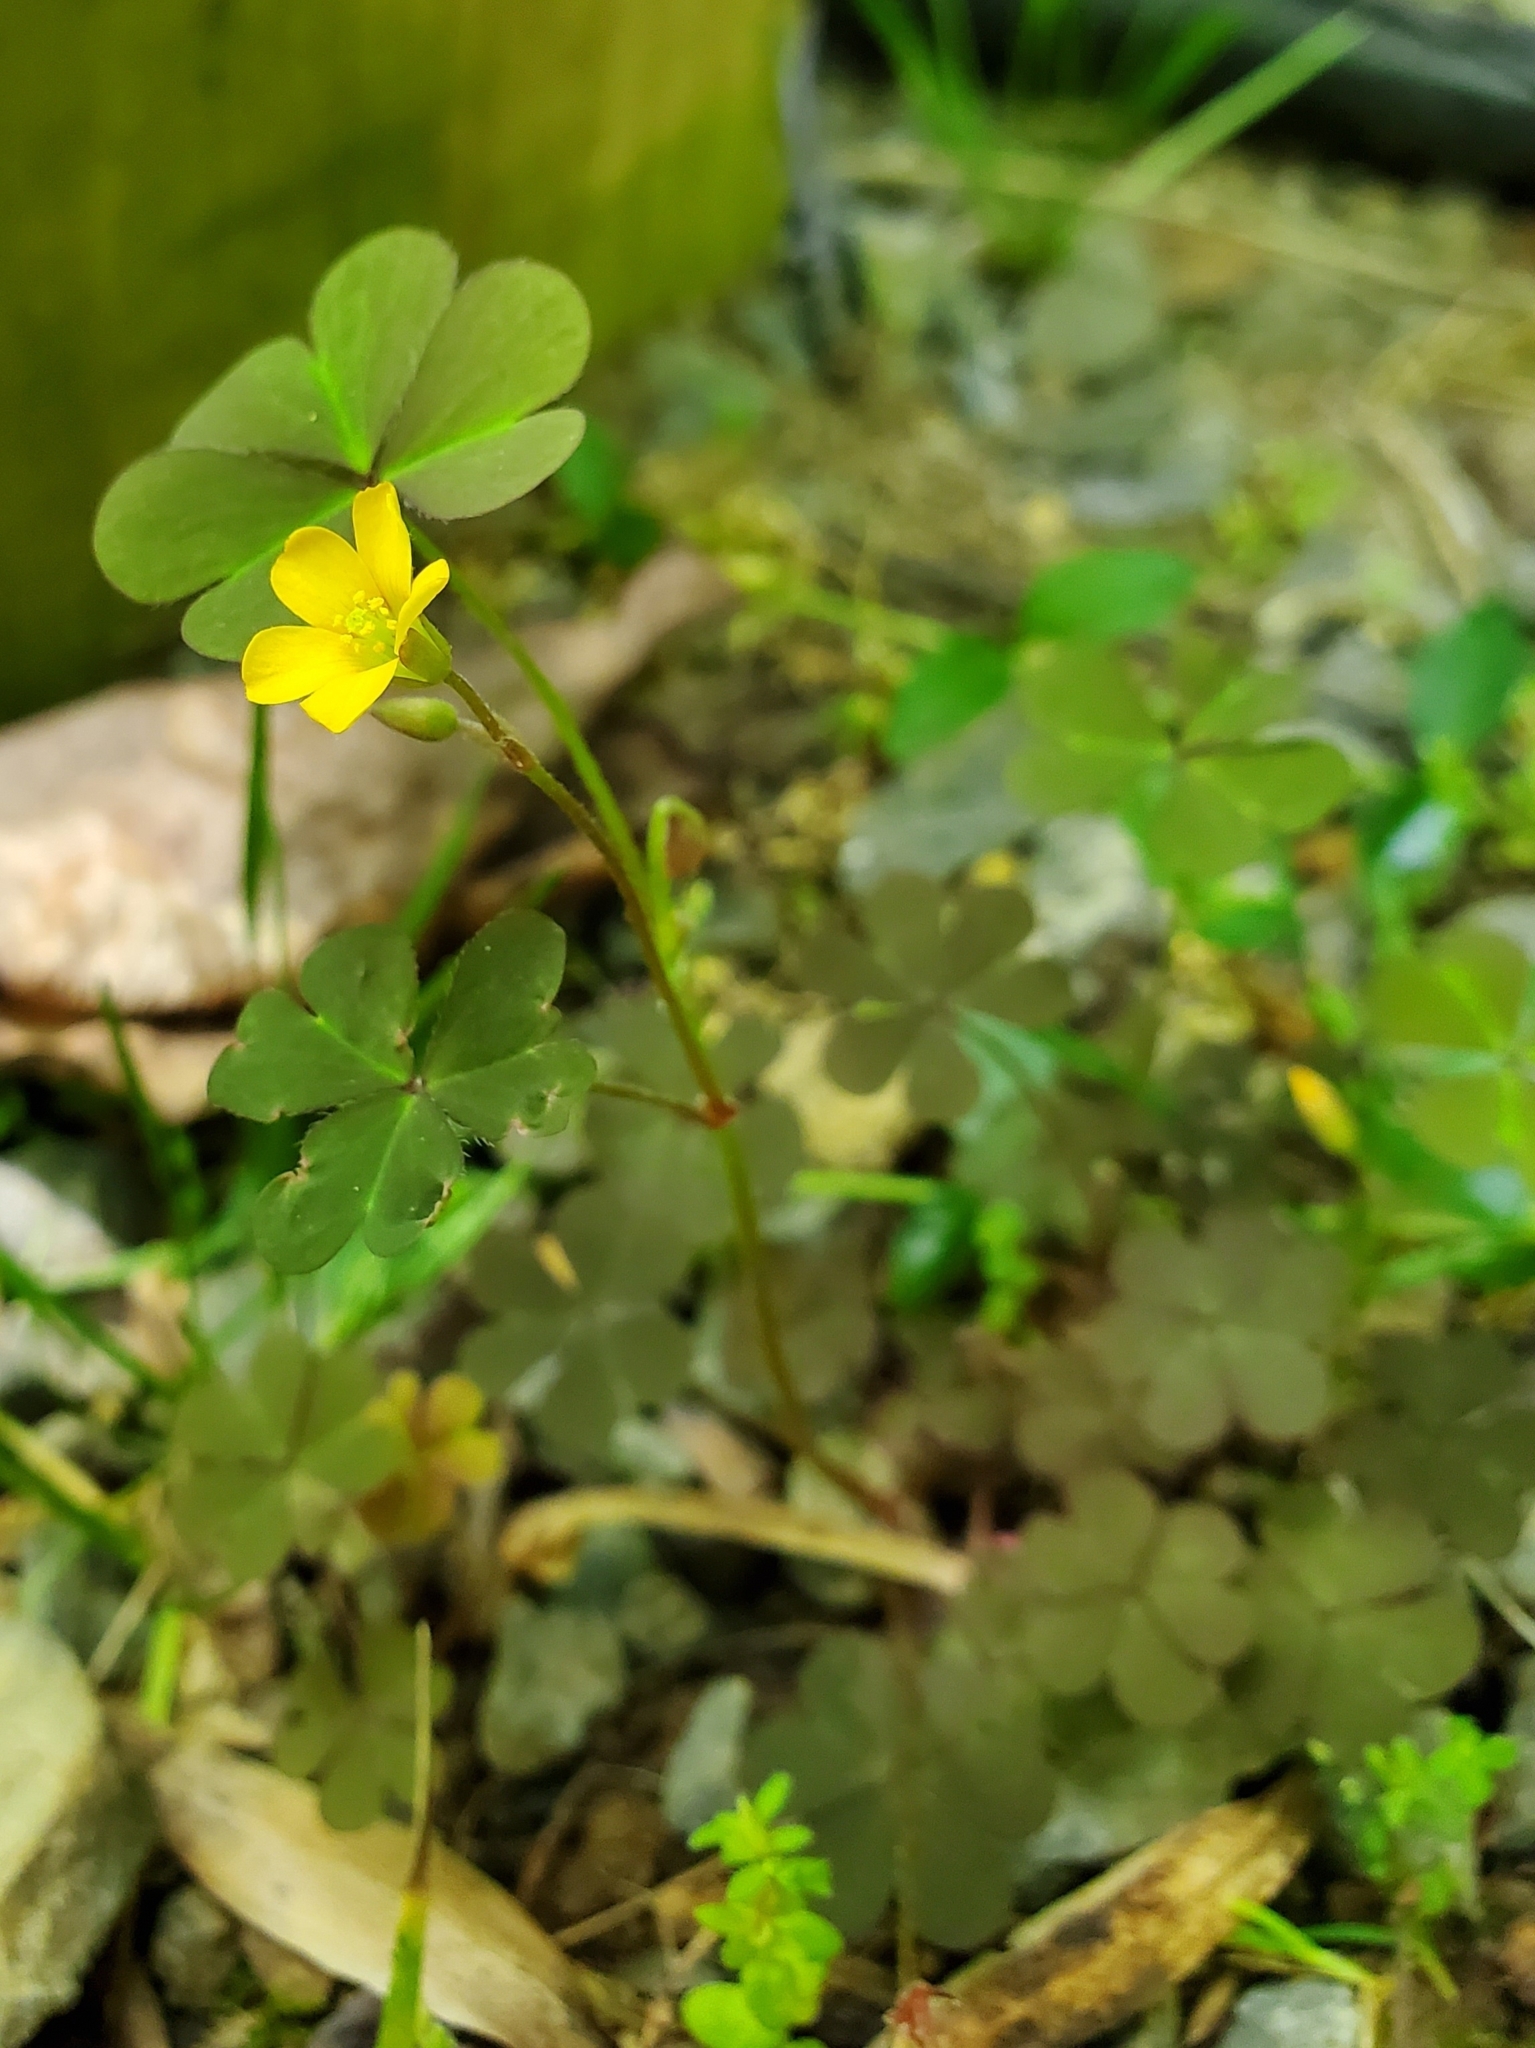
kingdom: Plantae
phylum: Tracheophyta
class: Magnoliopsida
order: Oxalidales
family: Oxalidaceae
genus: Oxalis
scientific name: Oxalis corniculata
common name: Procumbent yellow-sorrel
